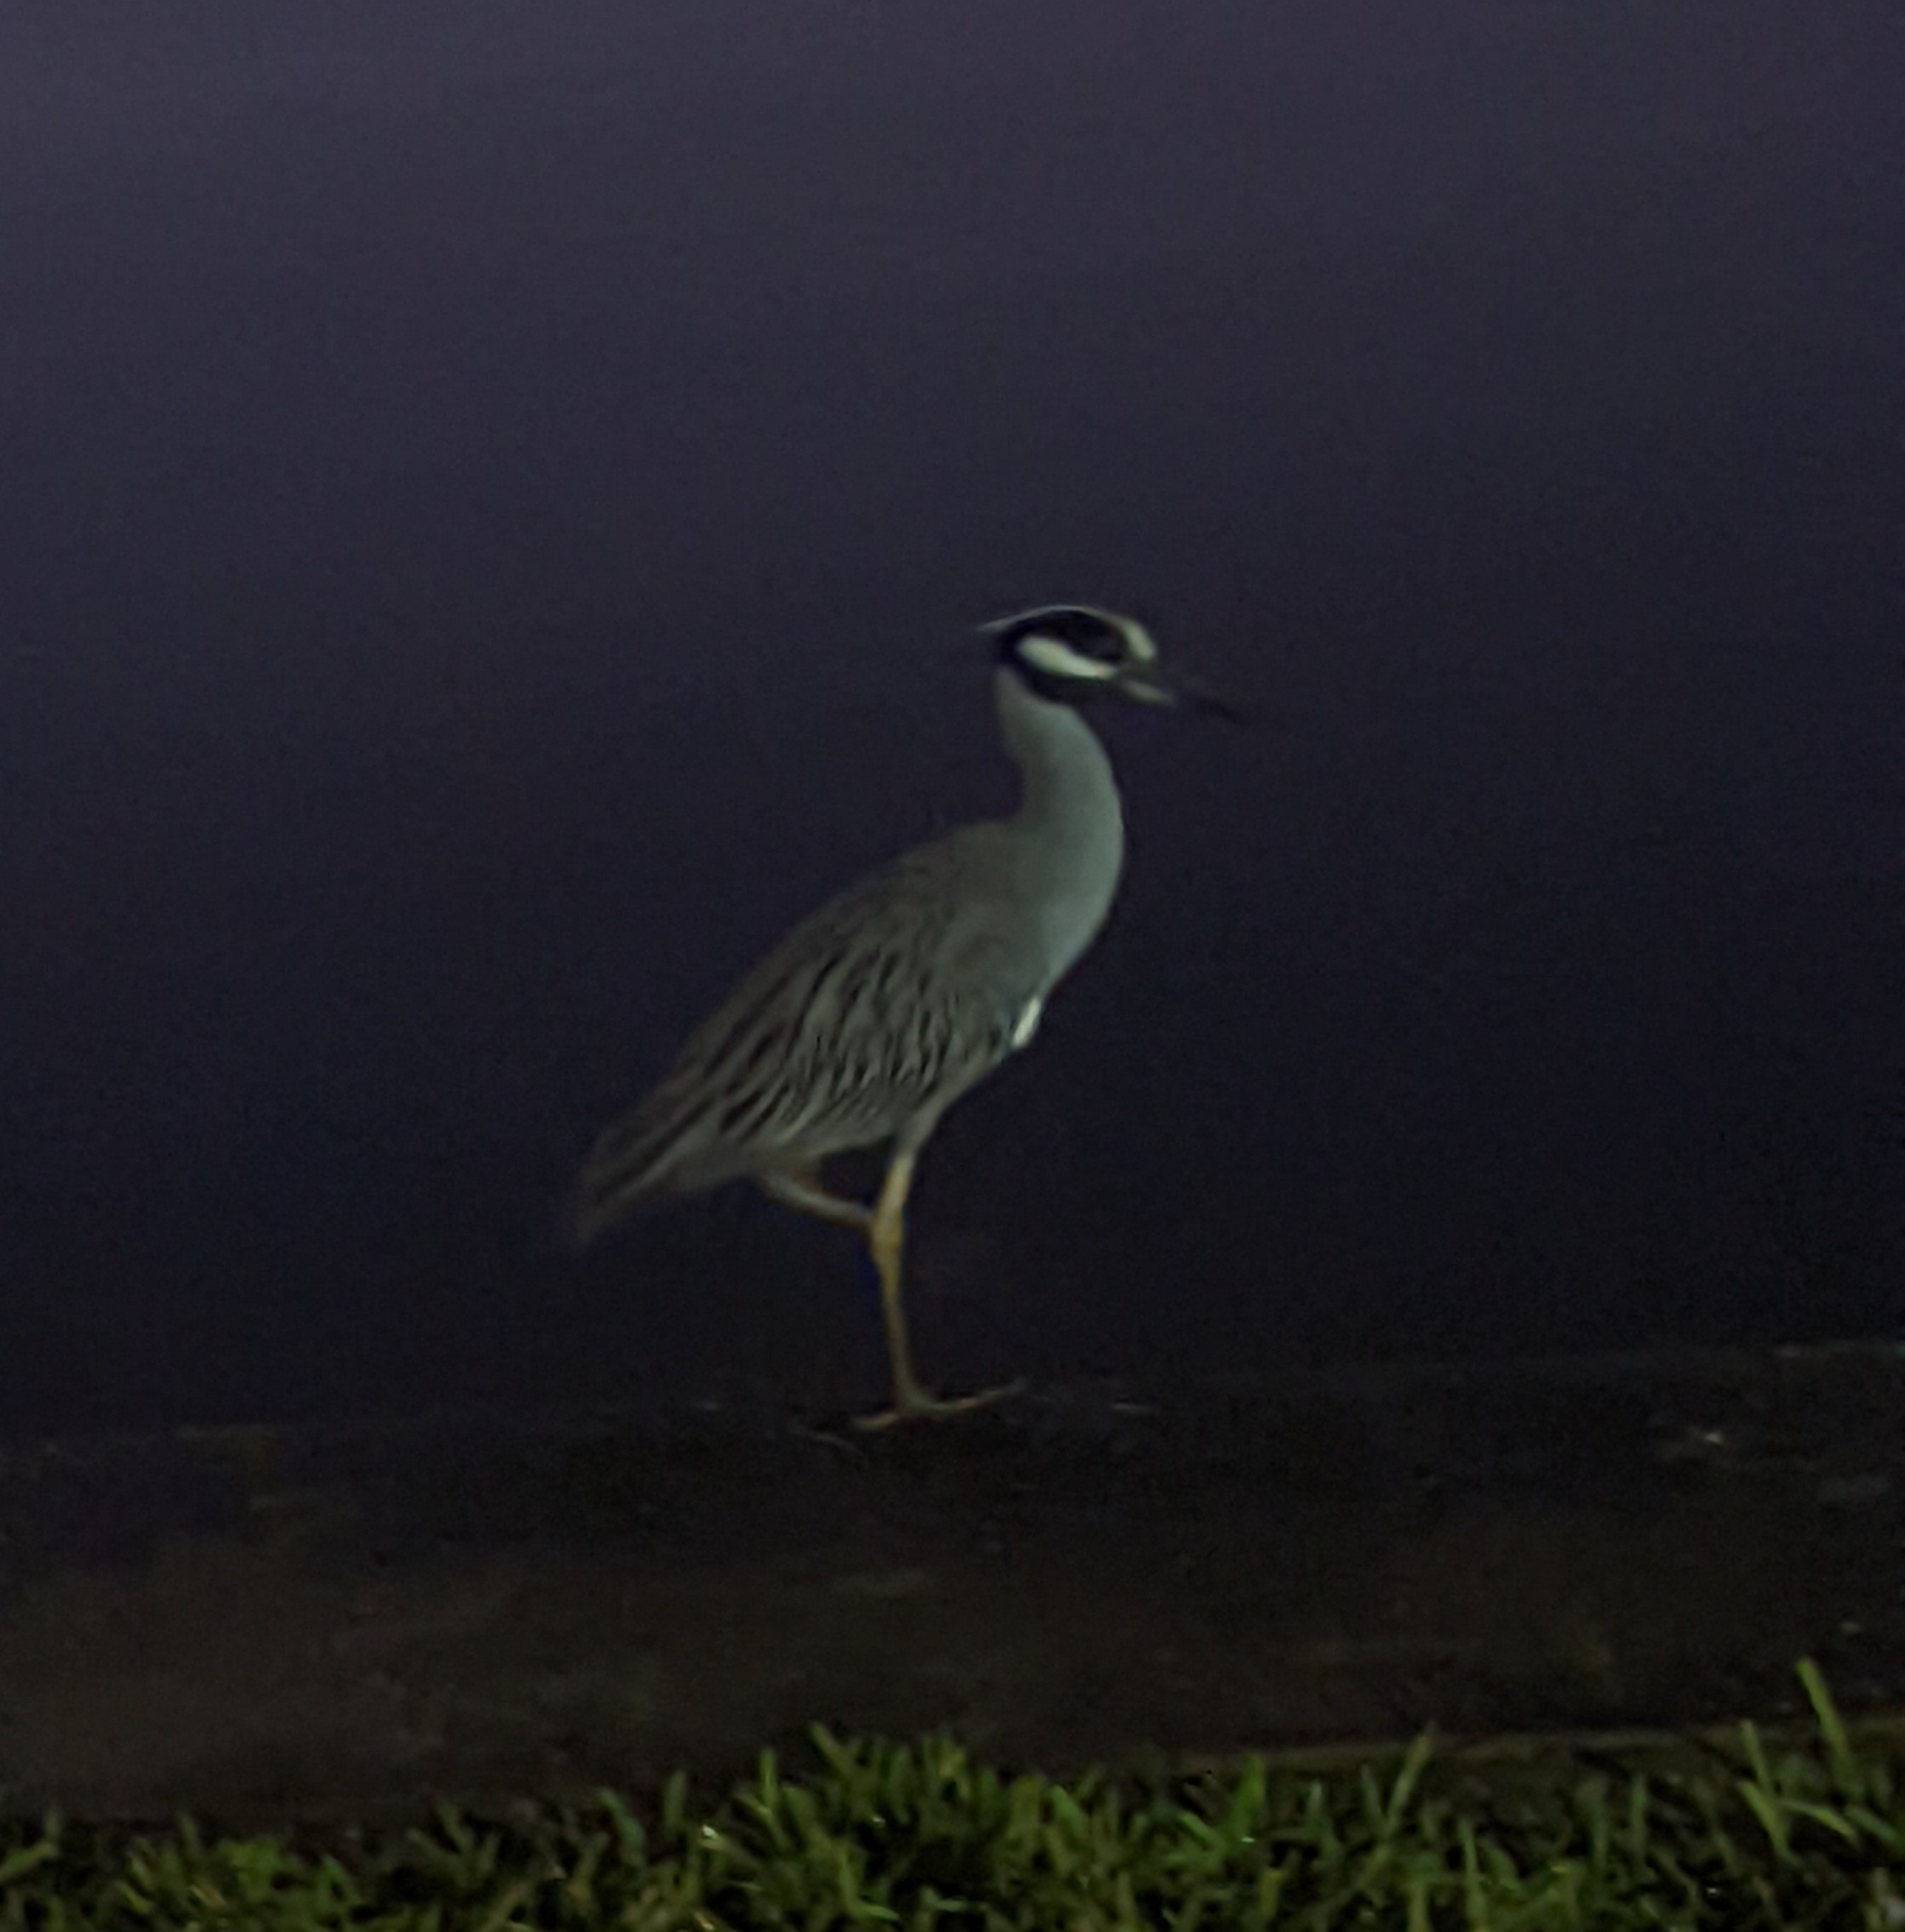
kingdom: Animalia
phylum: Chordata
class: Aves
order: Pelecaniformes
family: Ardeidae
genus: Nyctanassa
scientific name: Nyctanassa violacea
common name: Yellow-crowned night heron
